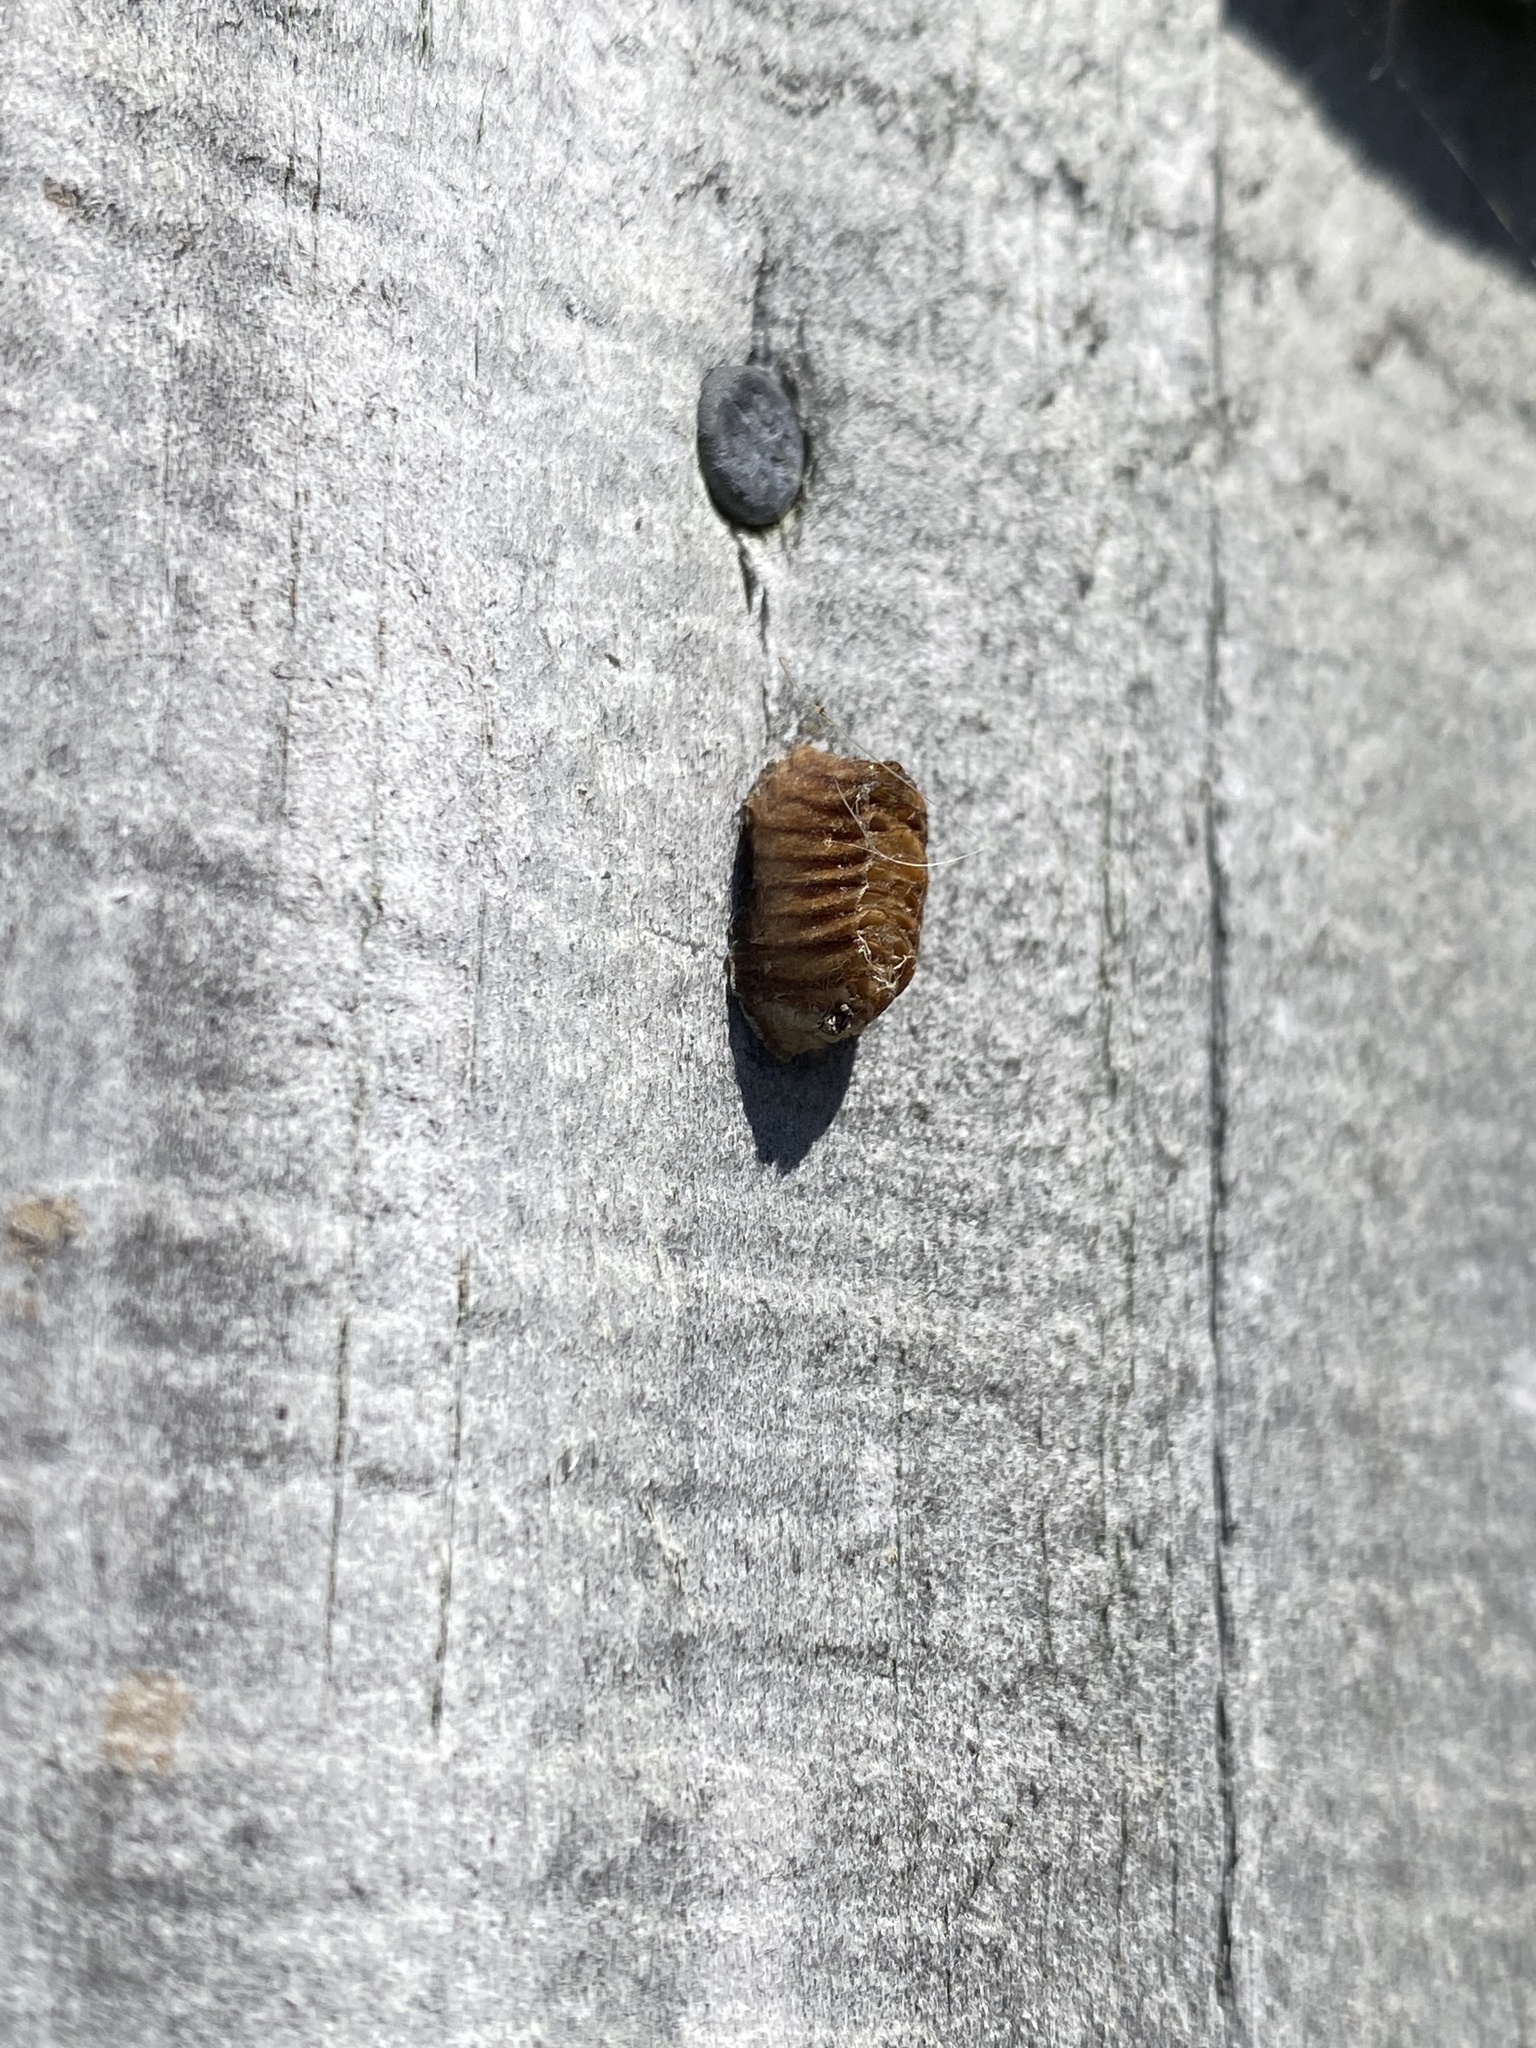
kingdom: Animalia
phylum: Arthropoda
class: Insecta
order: Mantodea
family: Mantidae
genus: Orthodera
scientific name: Orthodera novaezealandiae
